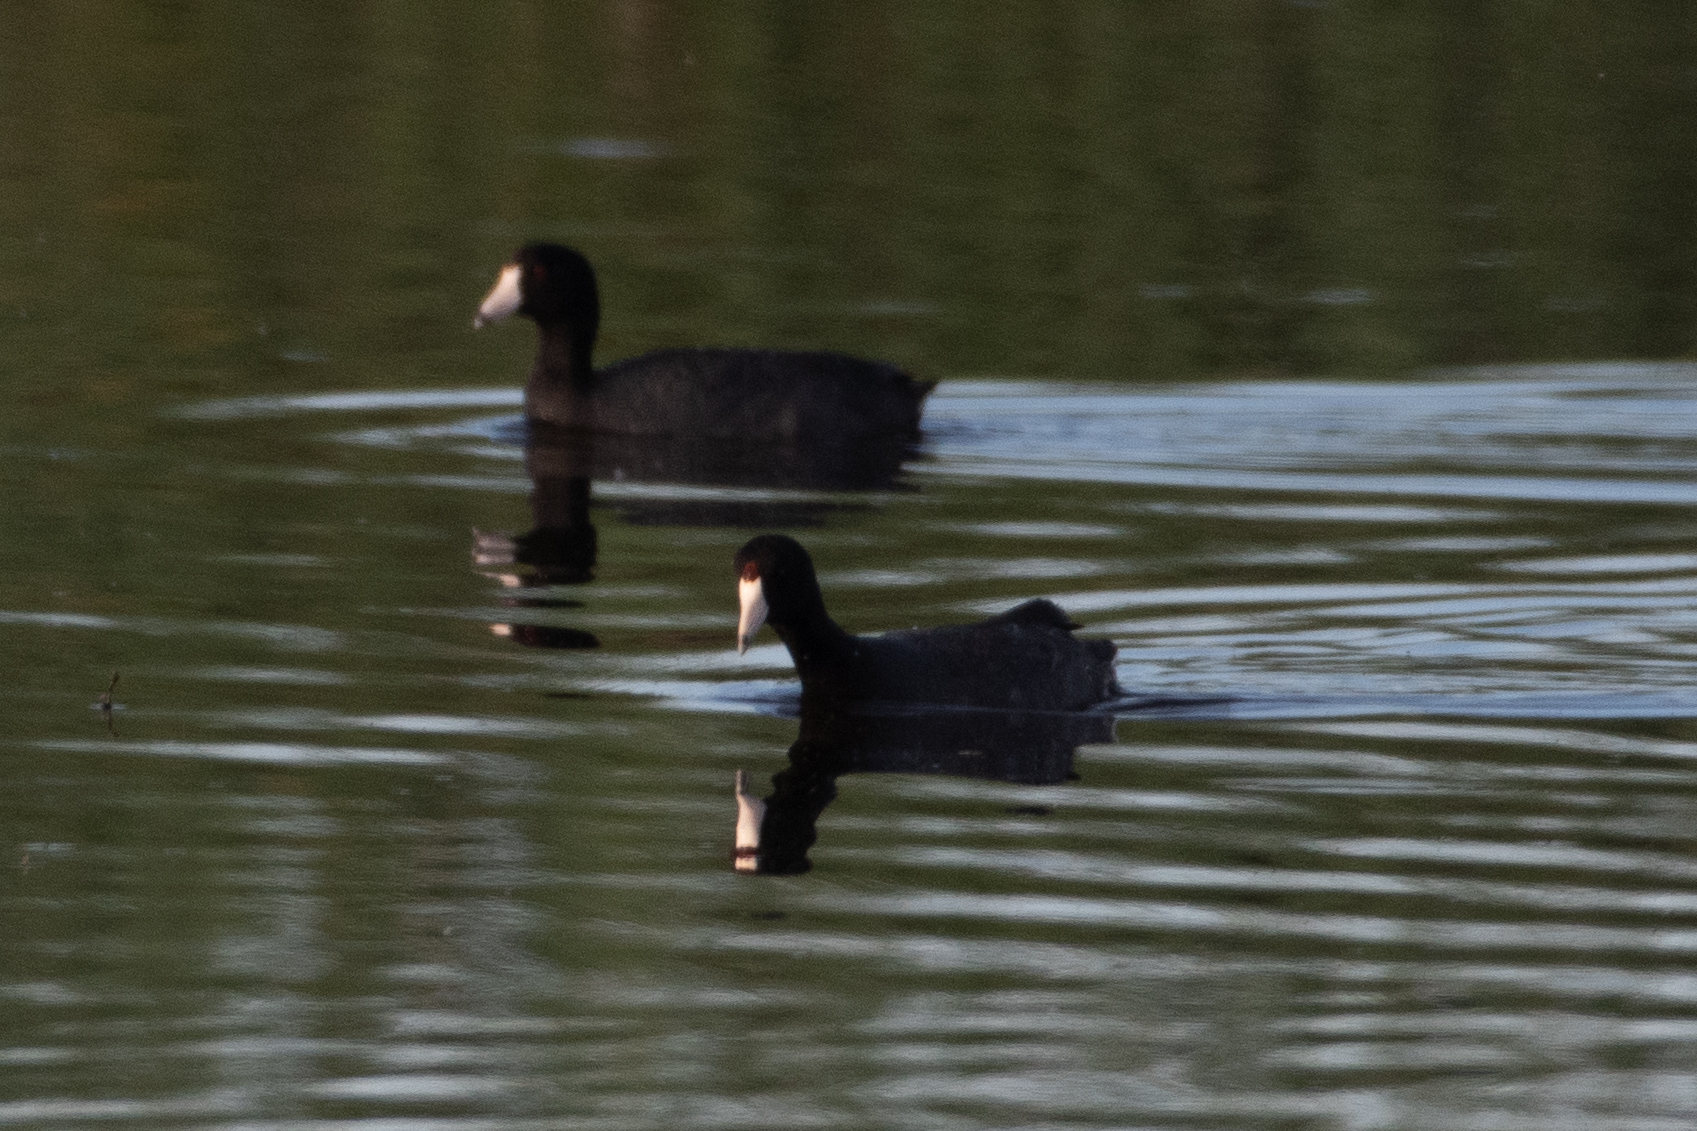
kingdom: Animalia
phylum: Chordata
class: Aves
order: Gruiformes
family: Rallidae
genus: Fulica
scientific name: Fulica americana
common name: American coot
